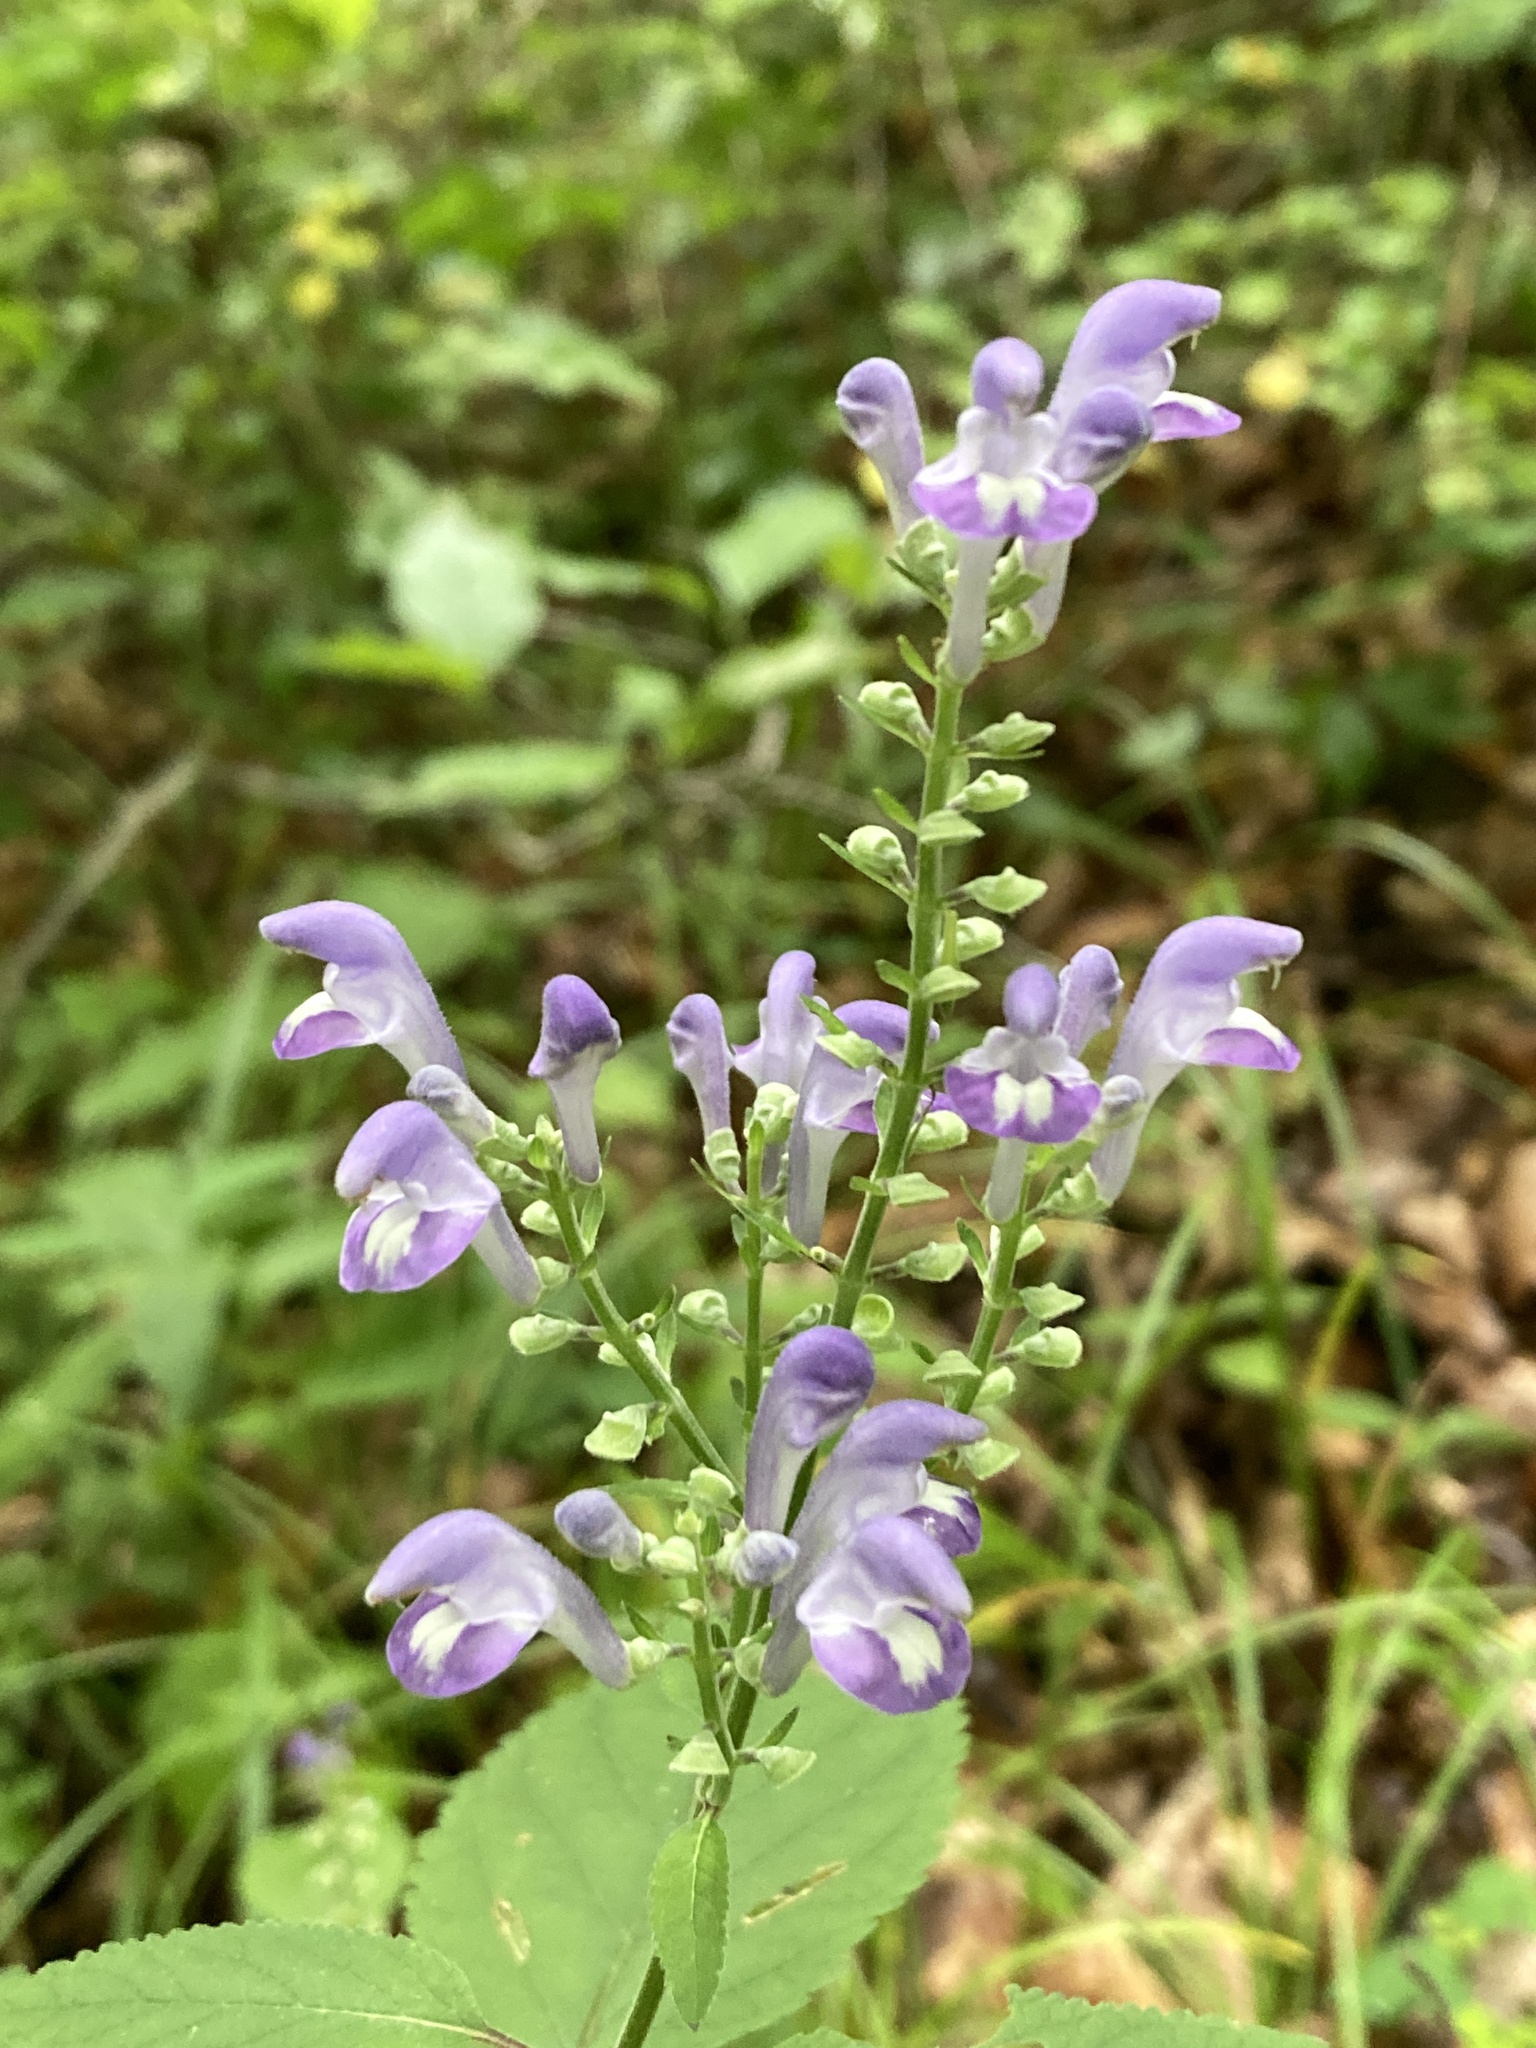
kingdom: Plantae
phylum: Tracheophyta
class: Magnoliopsida
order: Lamiales
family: Lamiaceae
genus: Scutellaria
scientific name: Scutellaria incana
